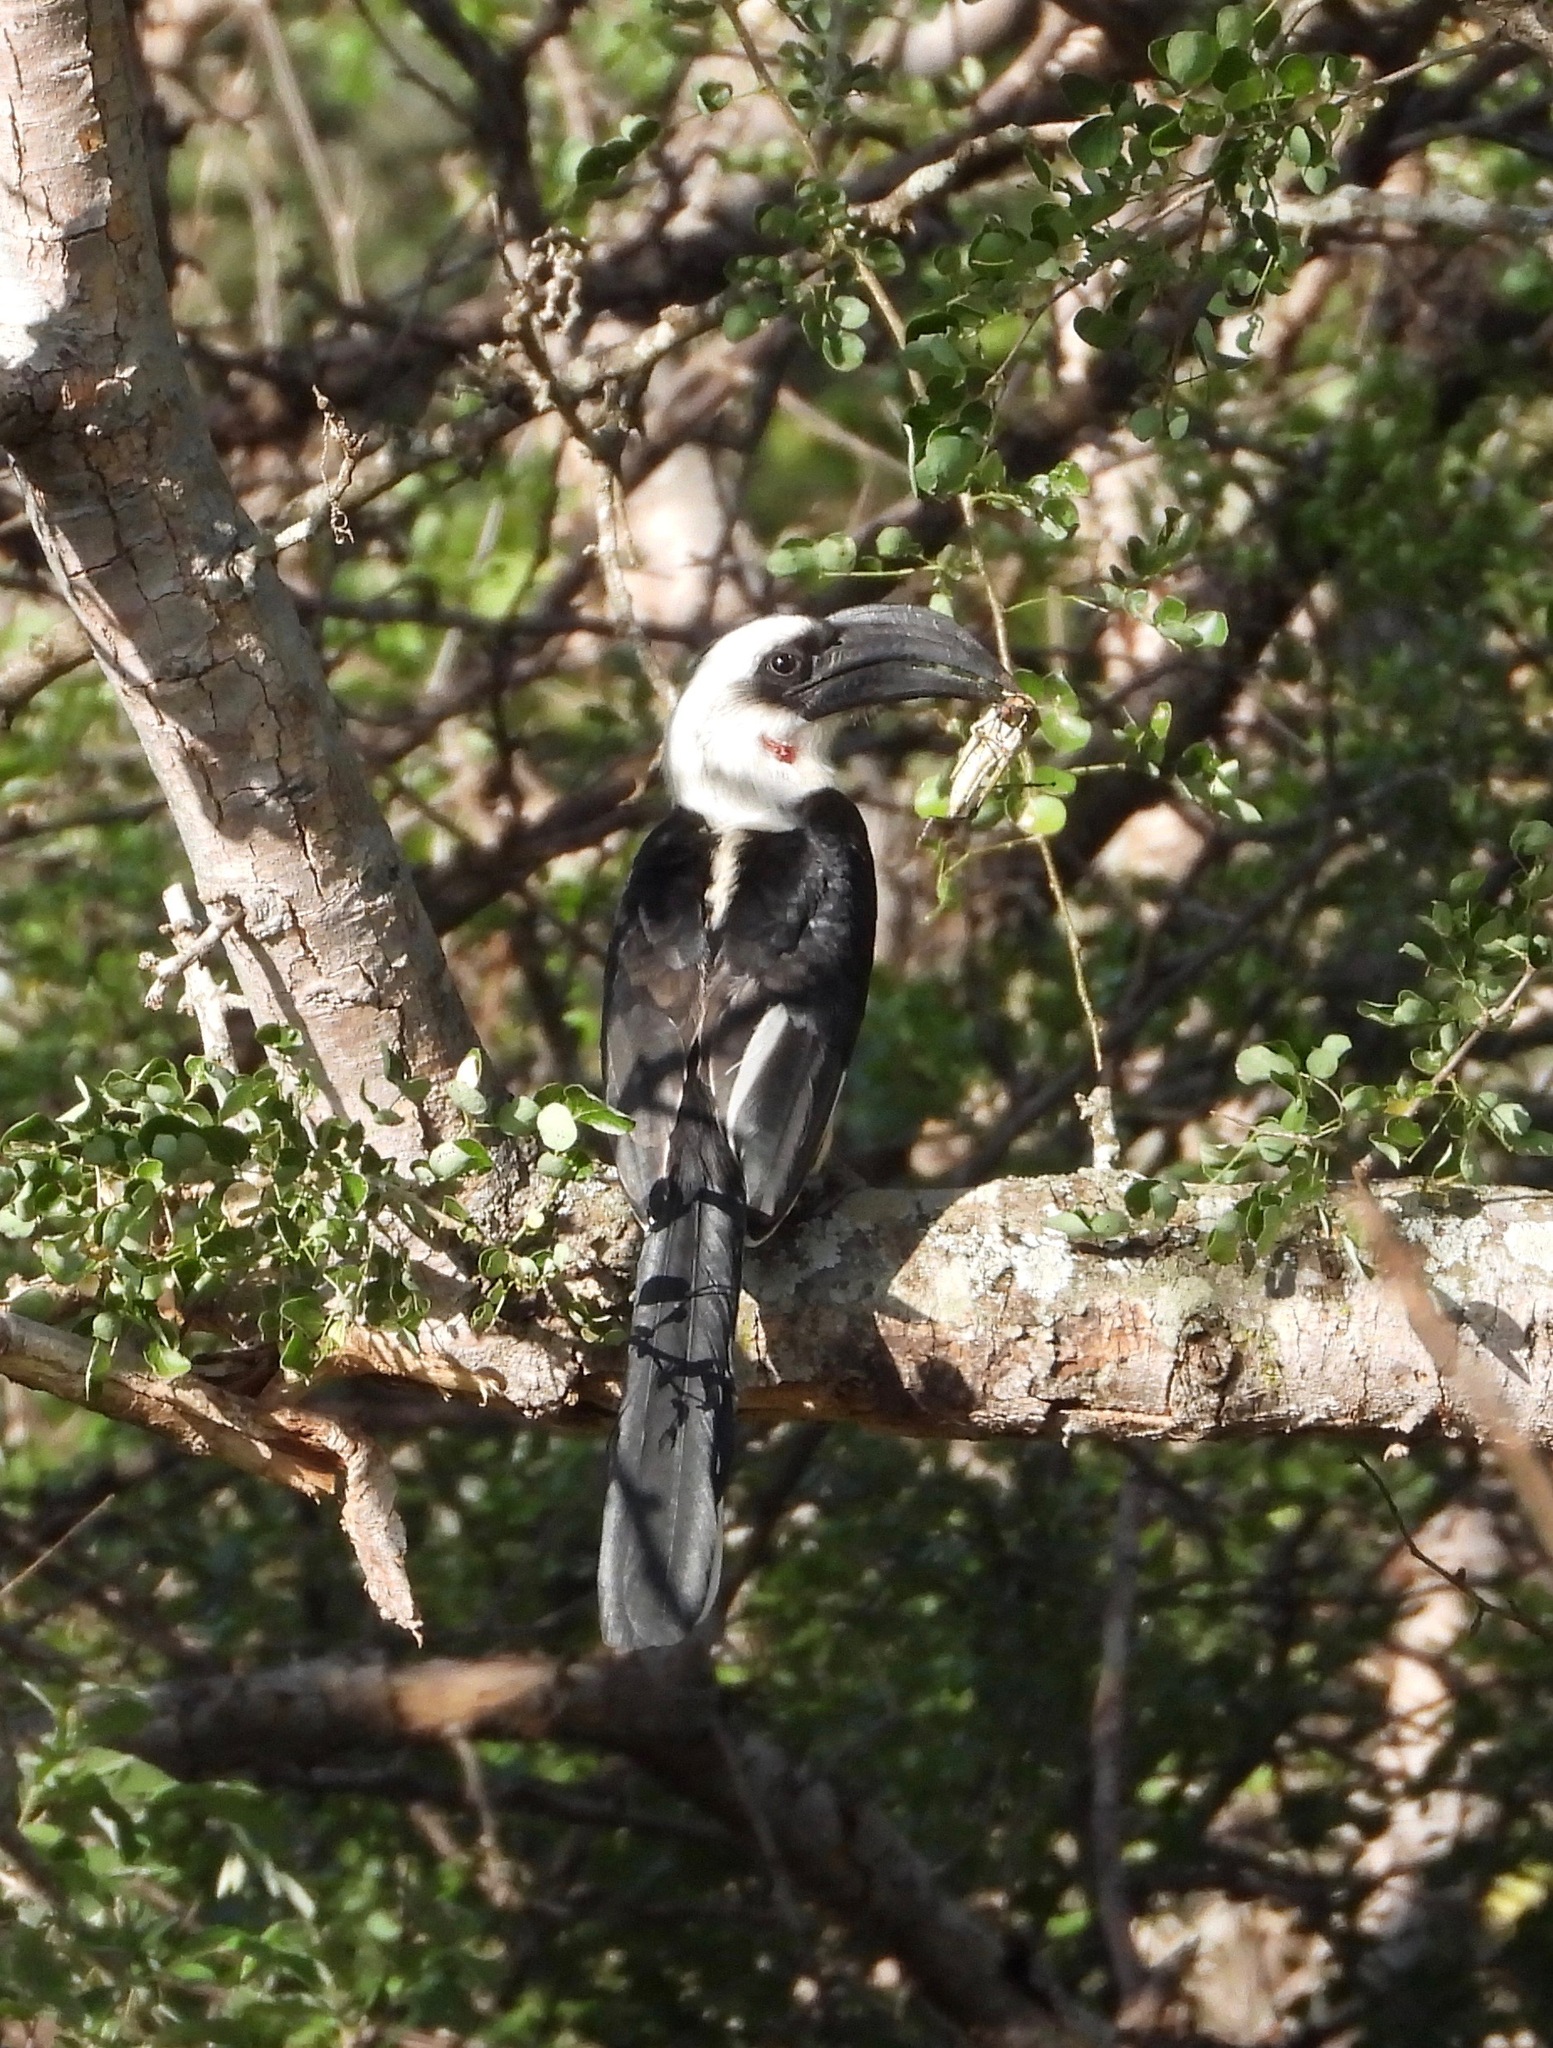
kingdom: Animalia
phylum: Chordata
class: Aves
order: Bucerotiformes
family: Bucerotidae
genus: Tockus
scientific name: Tockus deckeni
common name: Von der decken's hornbill
